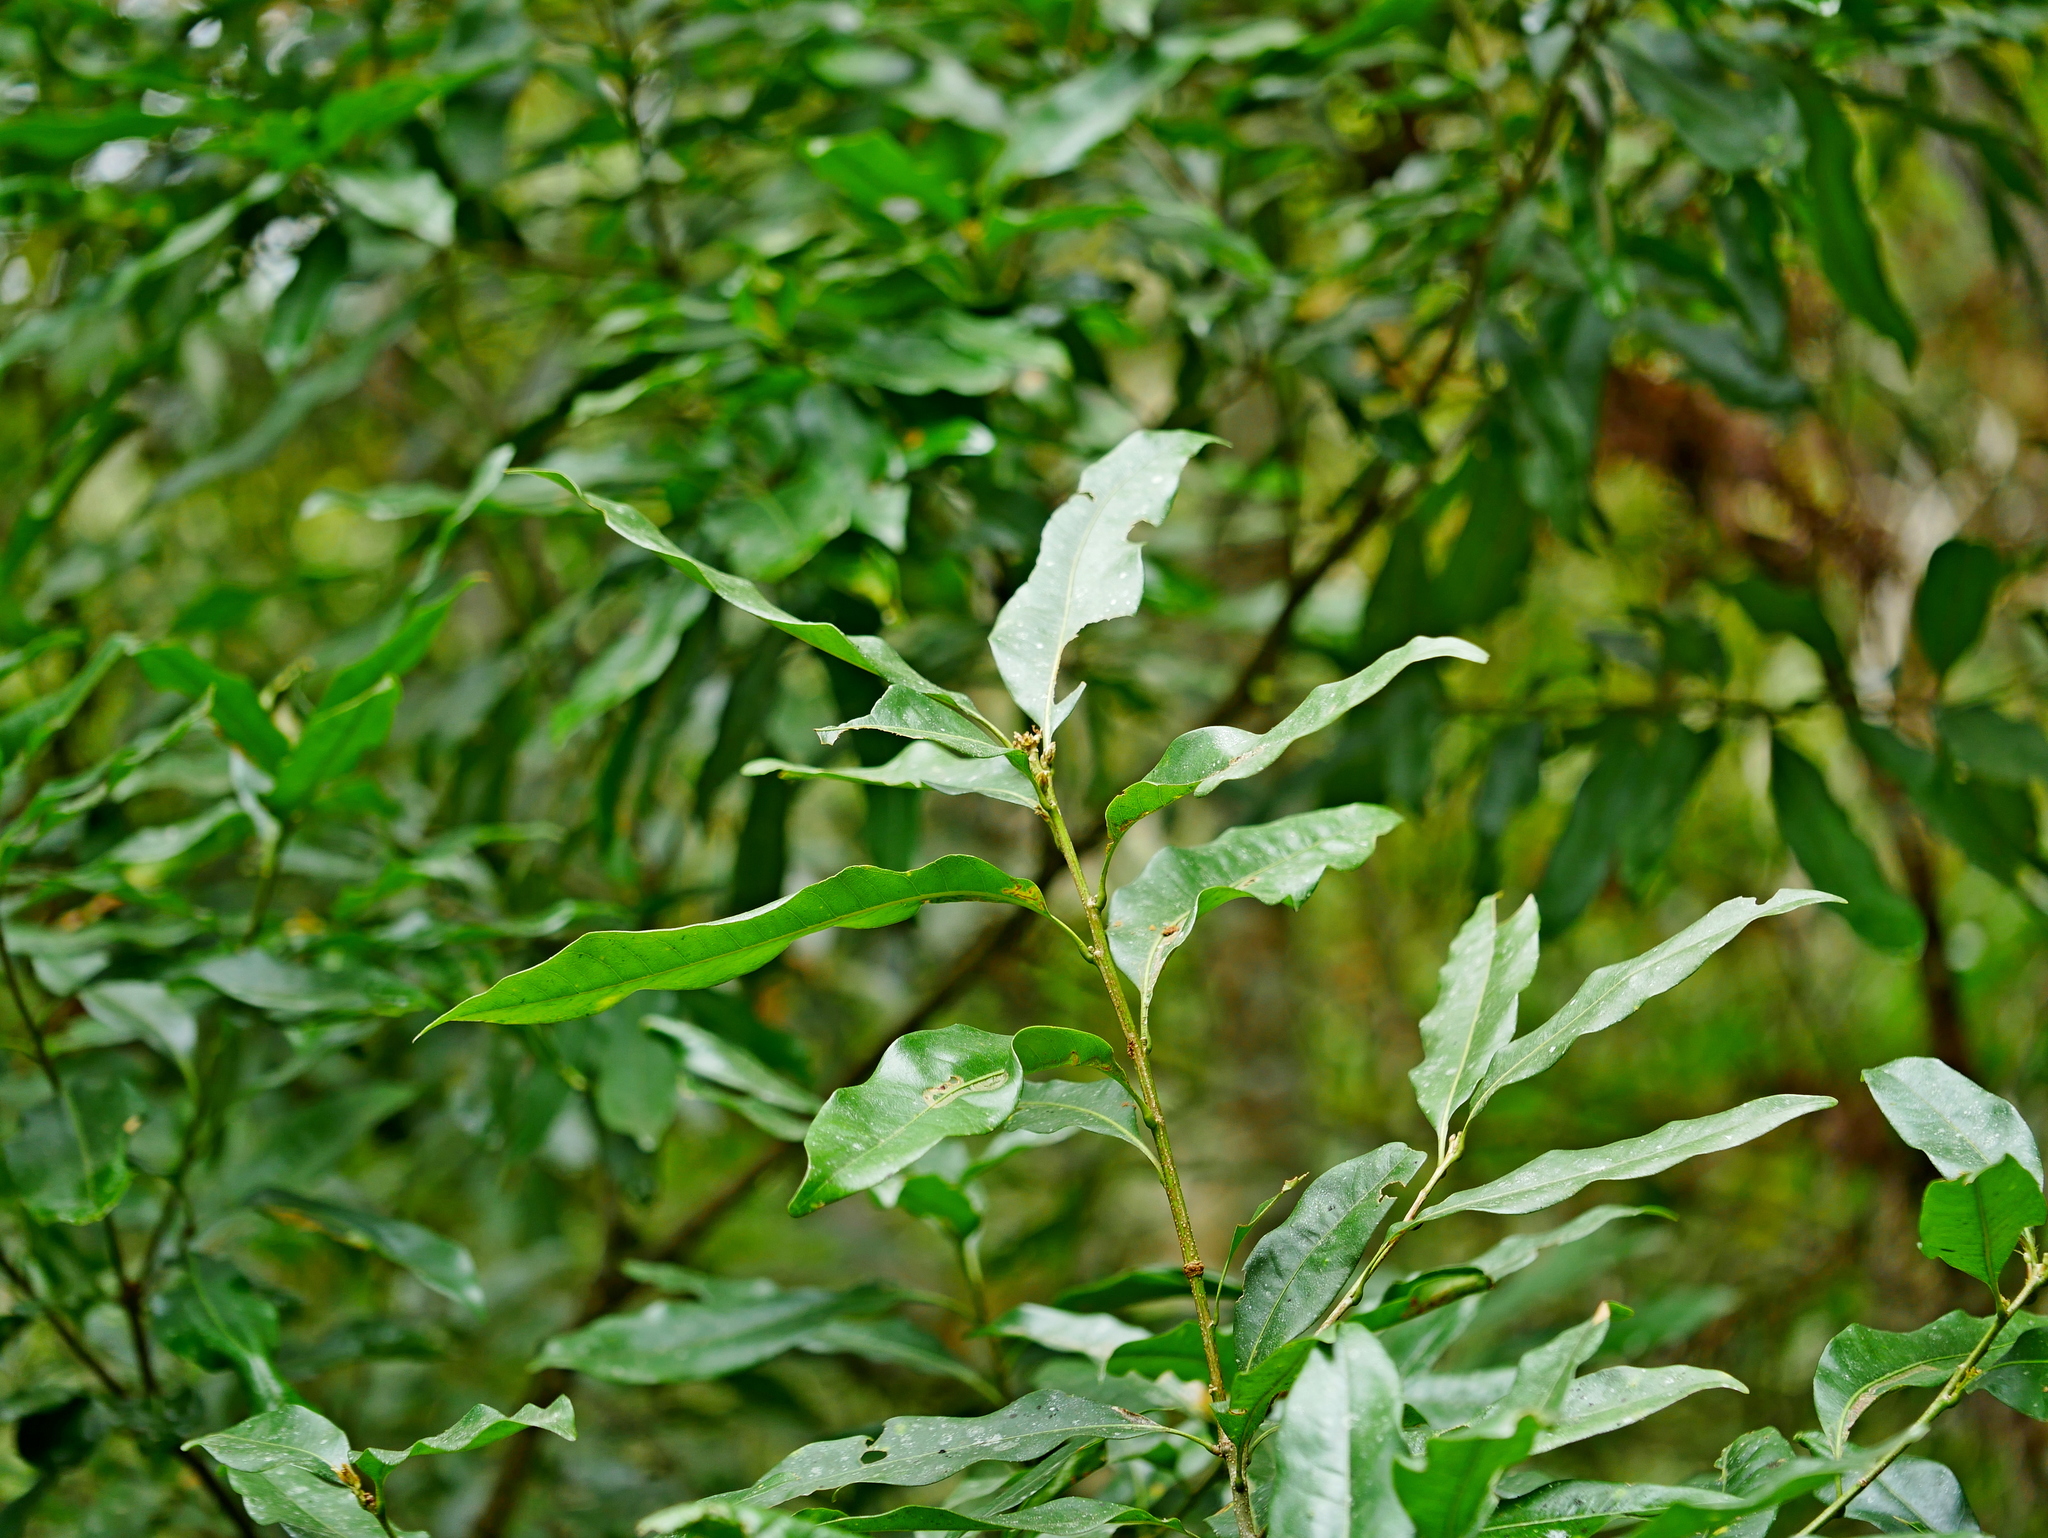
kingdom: Plantae
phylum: Tracheophyta
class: Magnoliopsida
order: Fagales
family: Fagaceae
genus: Lithocarpus
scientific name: Lithocarpus hancei
